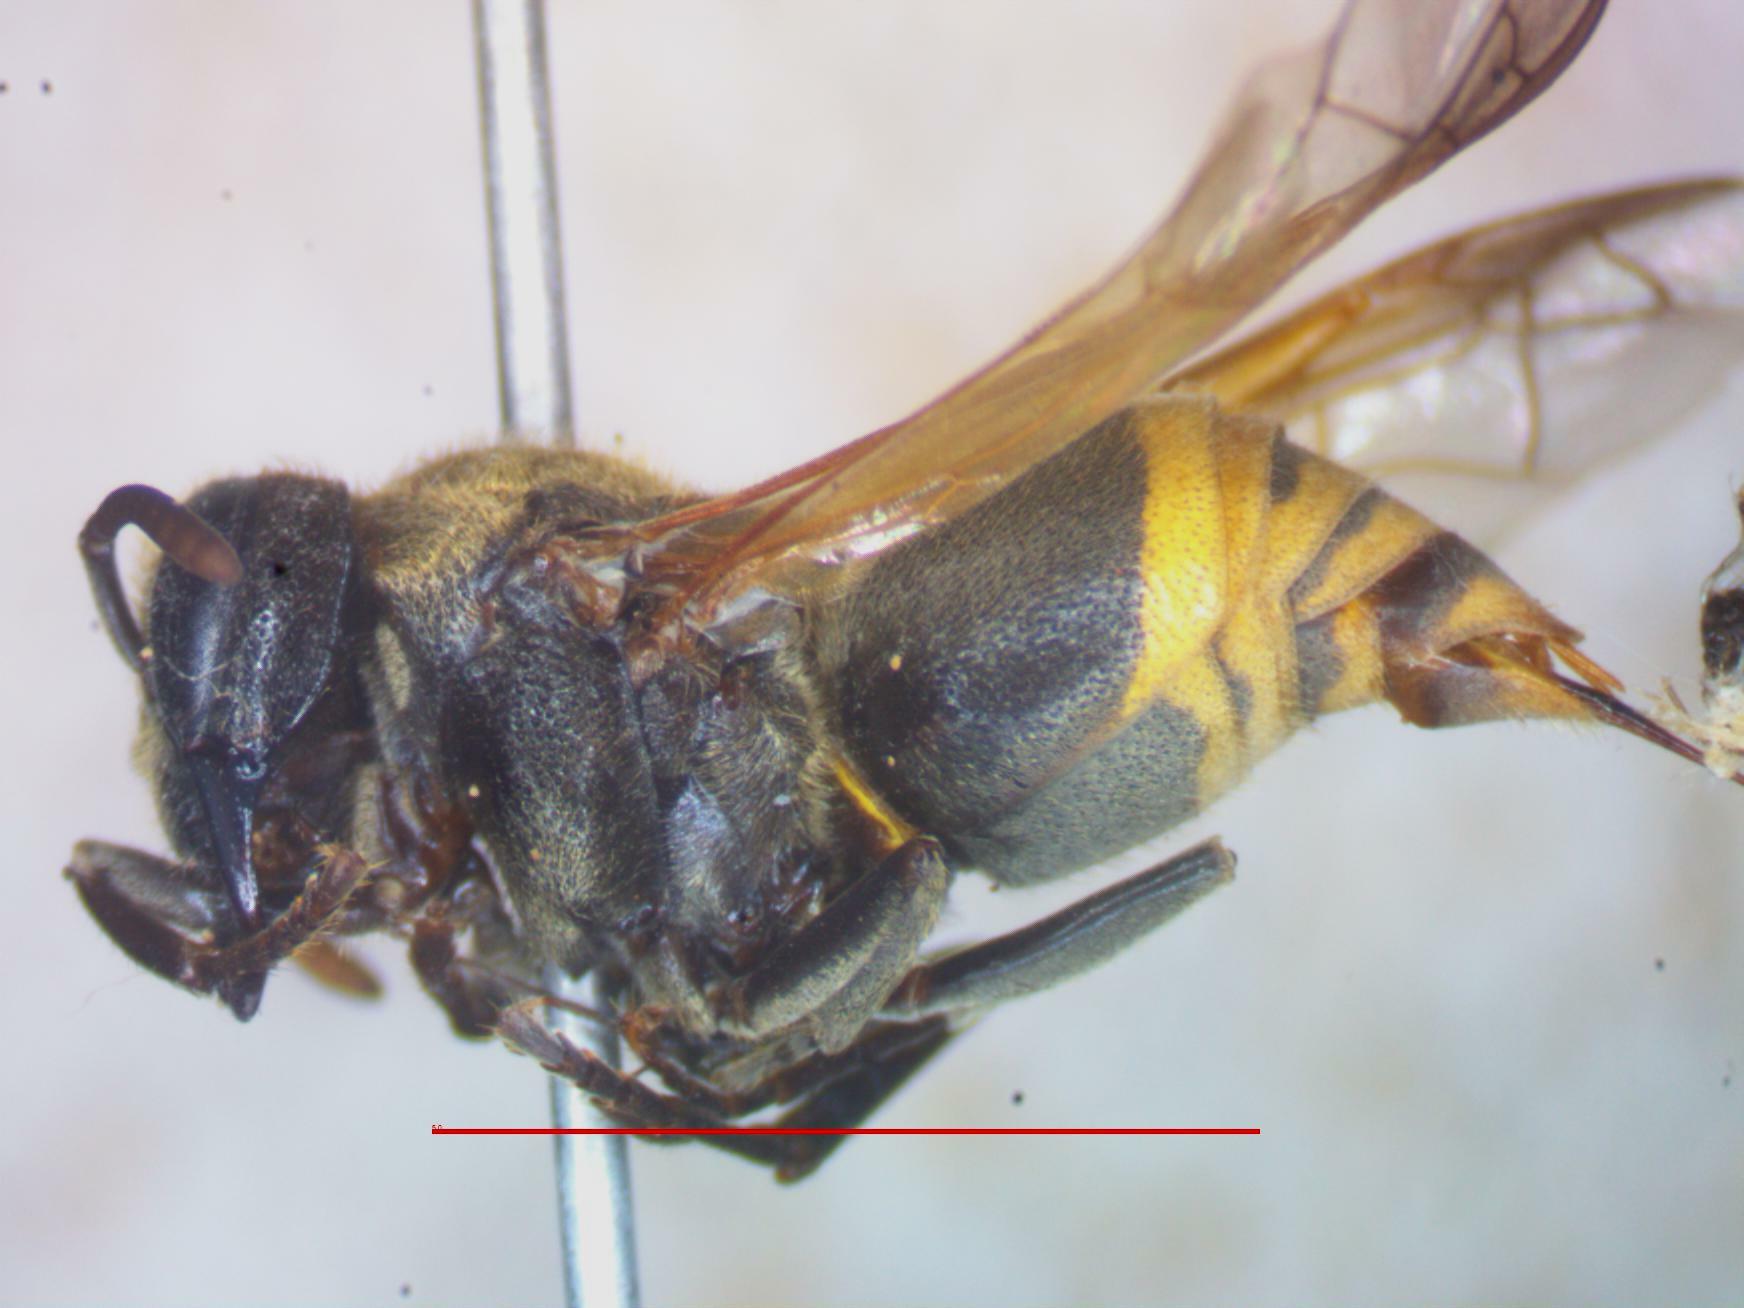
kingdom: Animalia
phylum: Arthropoda
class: Insecta
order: Hymenoptera
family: Vespidae
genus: Brachygastra
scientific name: Brachygastra mellifica
